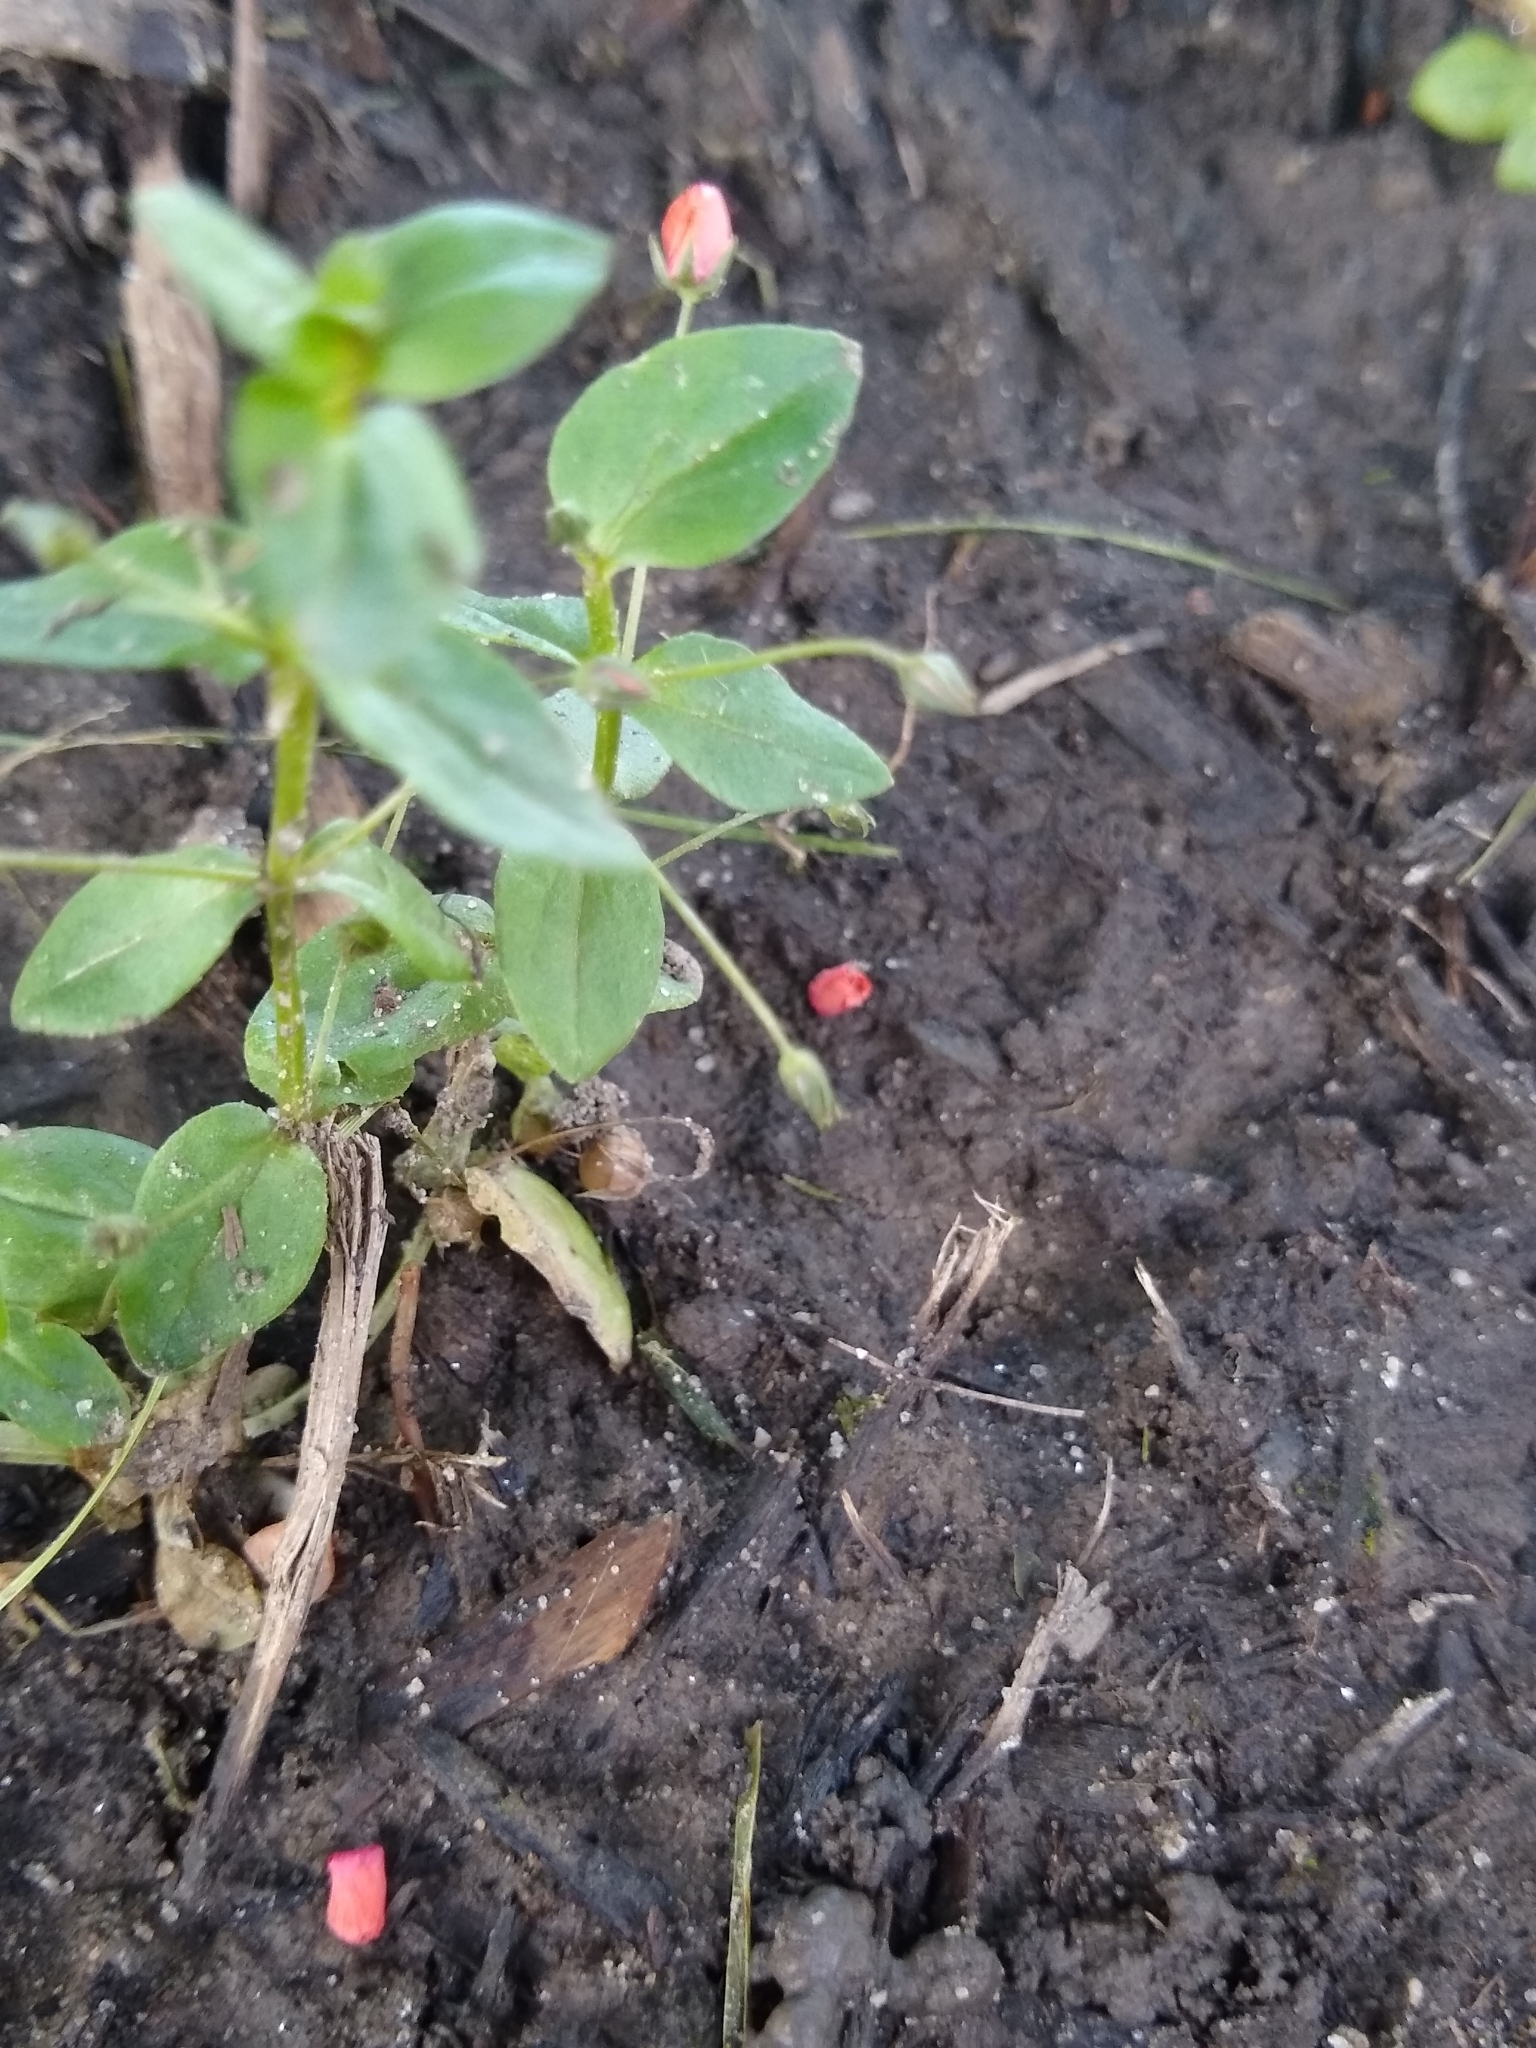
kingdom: Plantae
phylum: Tracheophyta
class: Magnoliopsida
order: Ericales
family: Primulaceae
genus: Lysimachia
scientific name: Lysimachia arvensis
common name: Scarlet pimpernel
